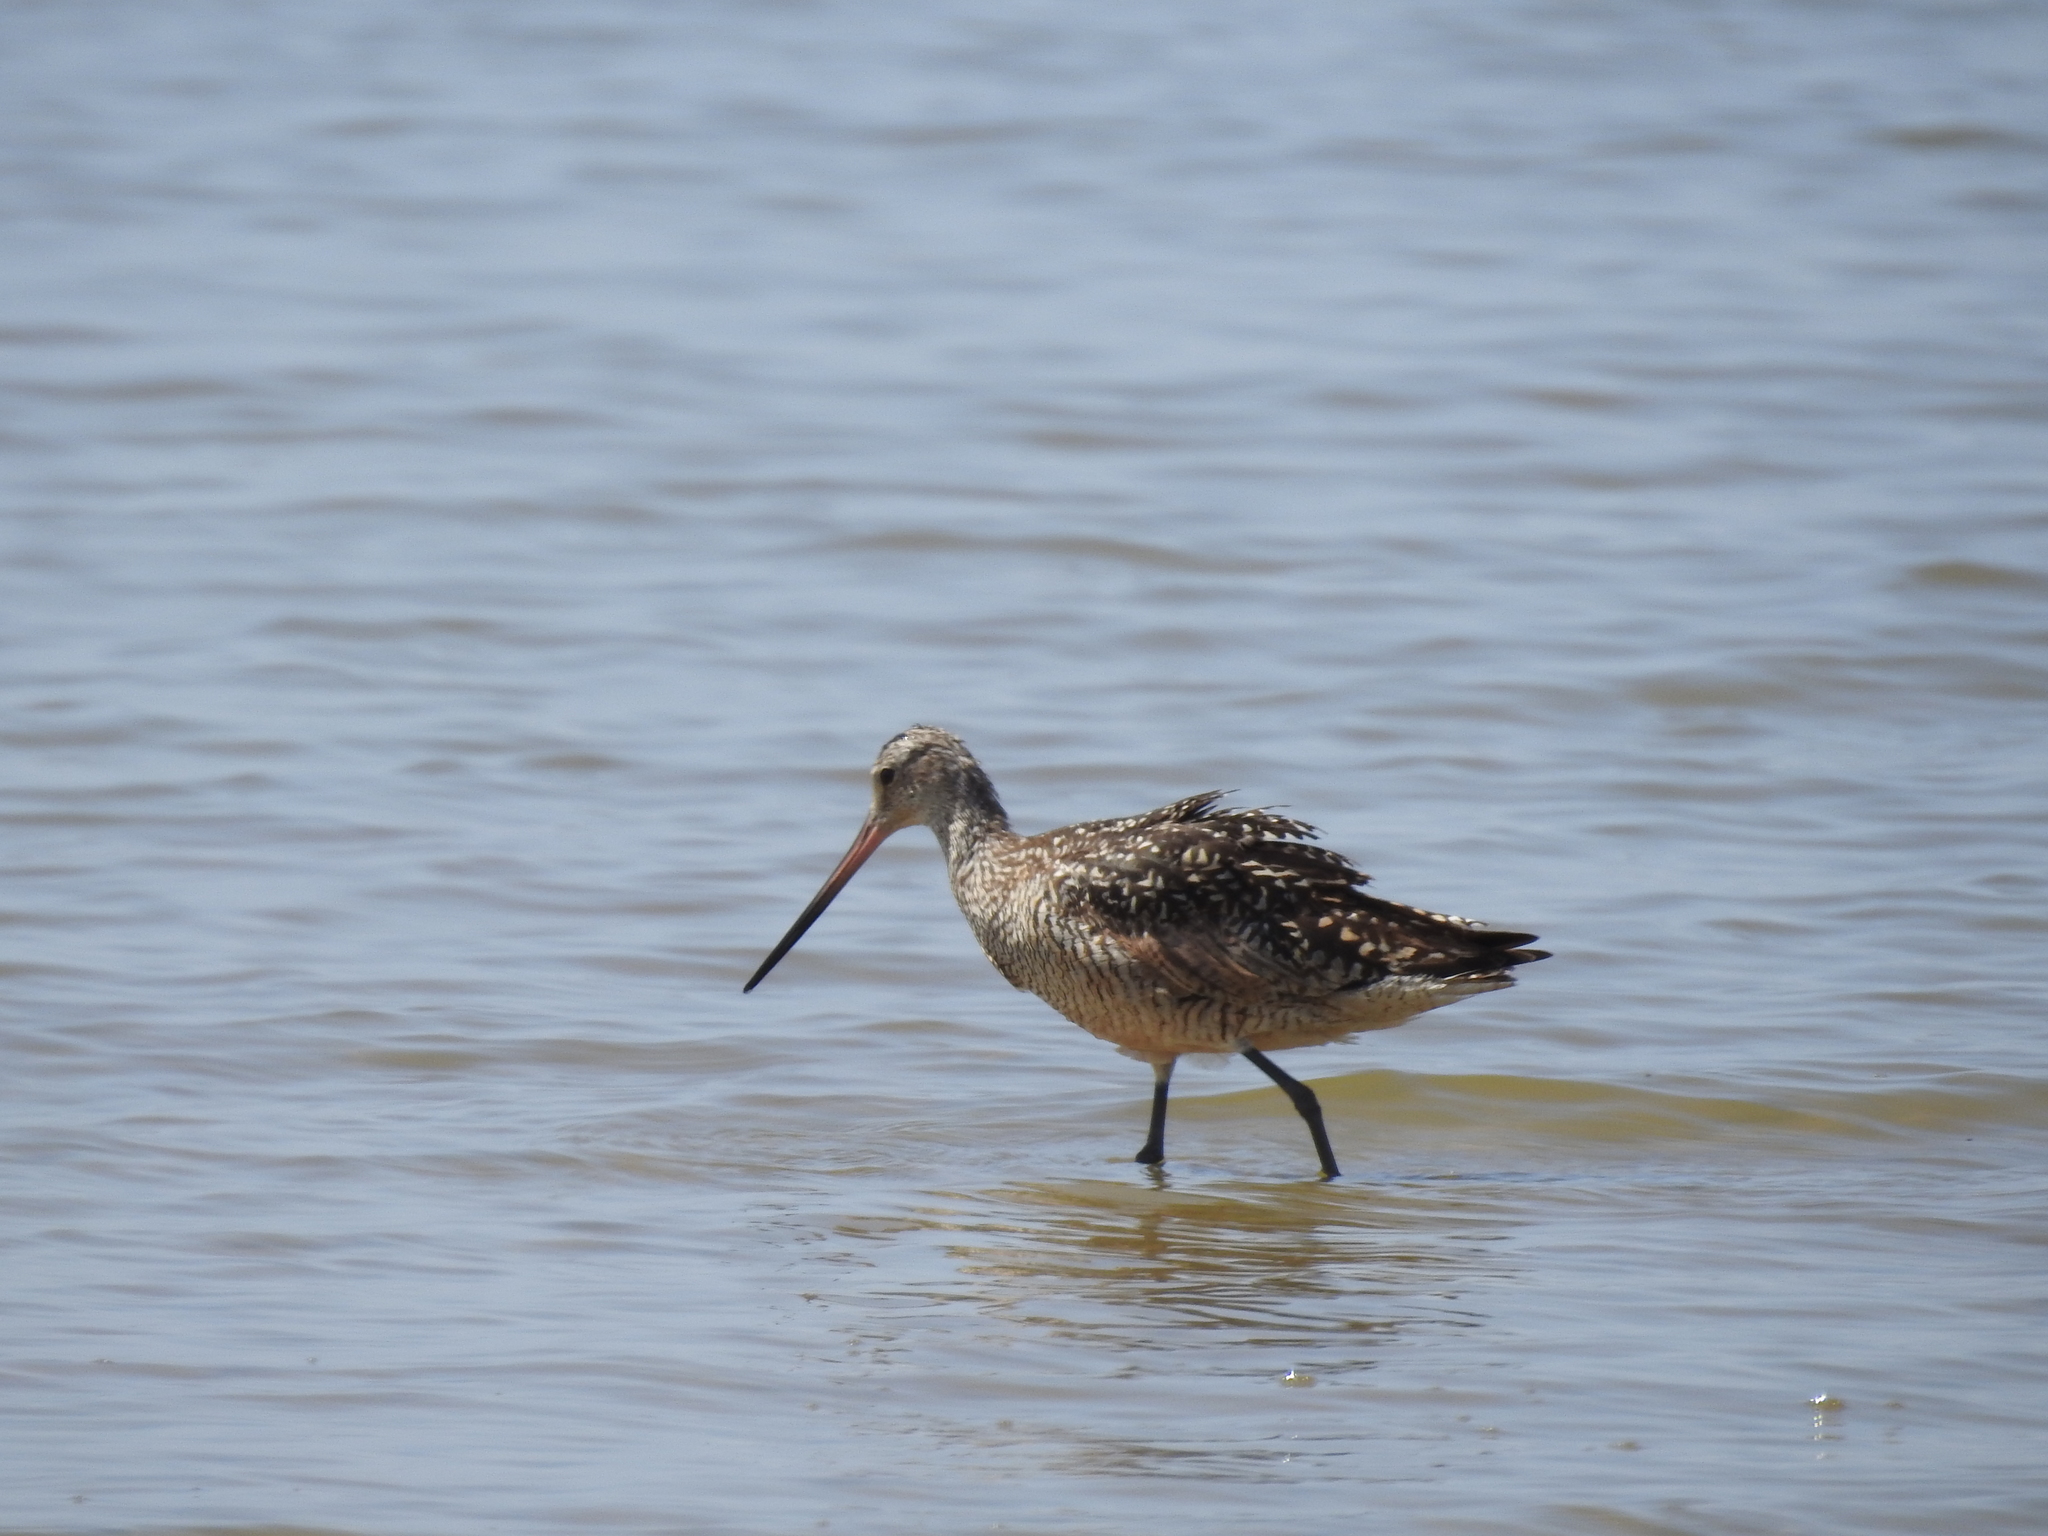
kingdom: Animalia
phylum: Chordata
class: Aves
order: Charadriiformes
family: Scolopacidae
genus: Limosa
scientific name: Limosa fedoa
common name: Marbled godwit
